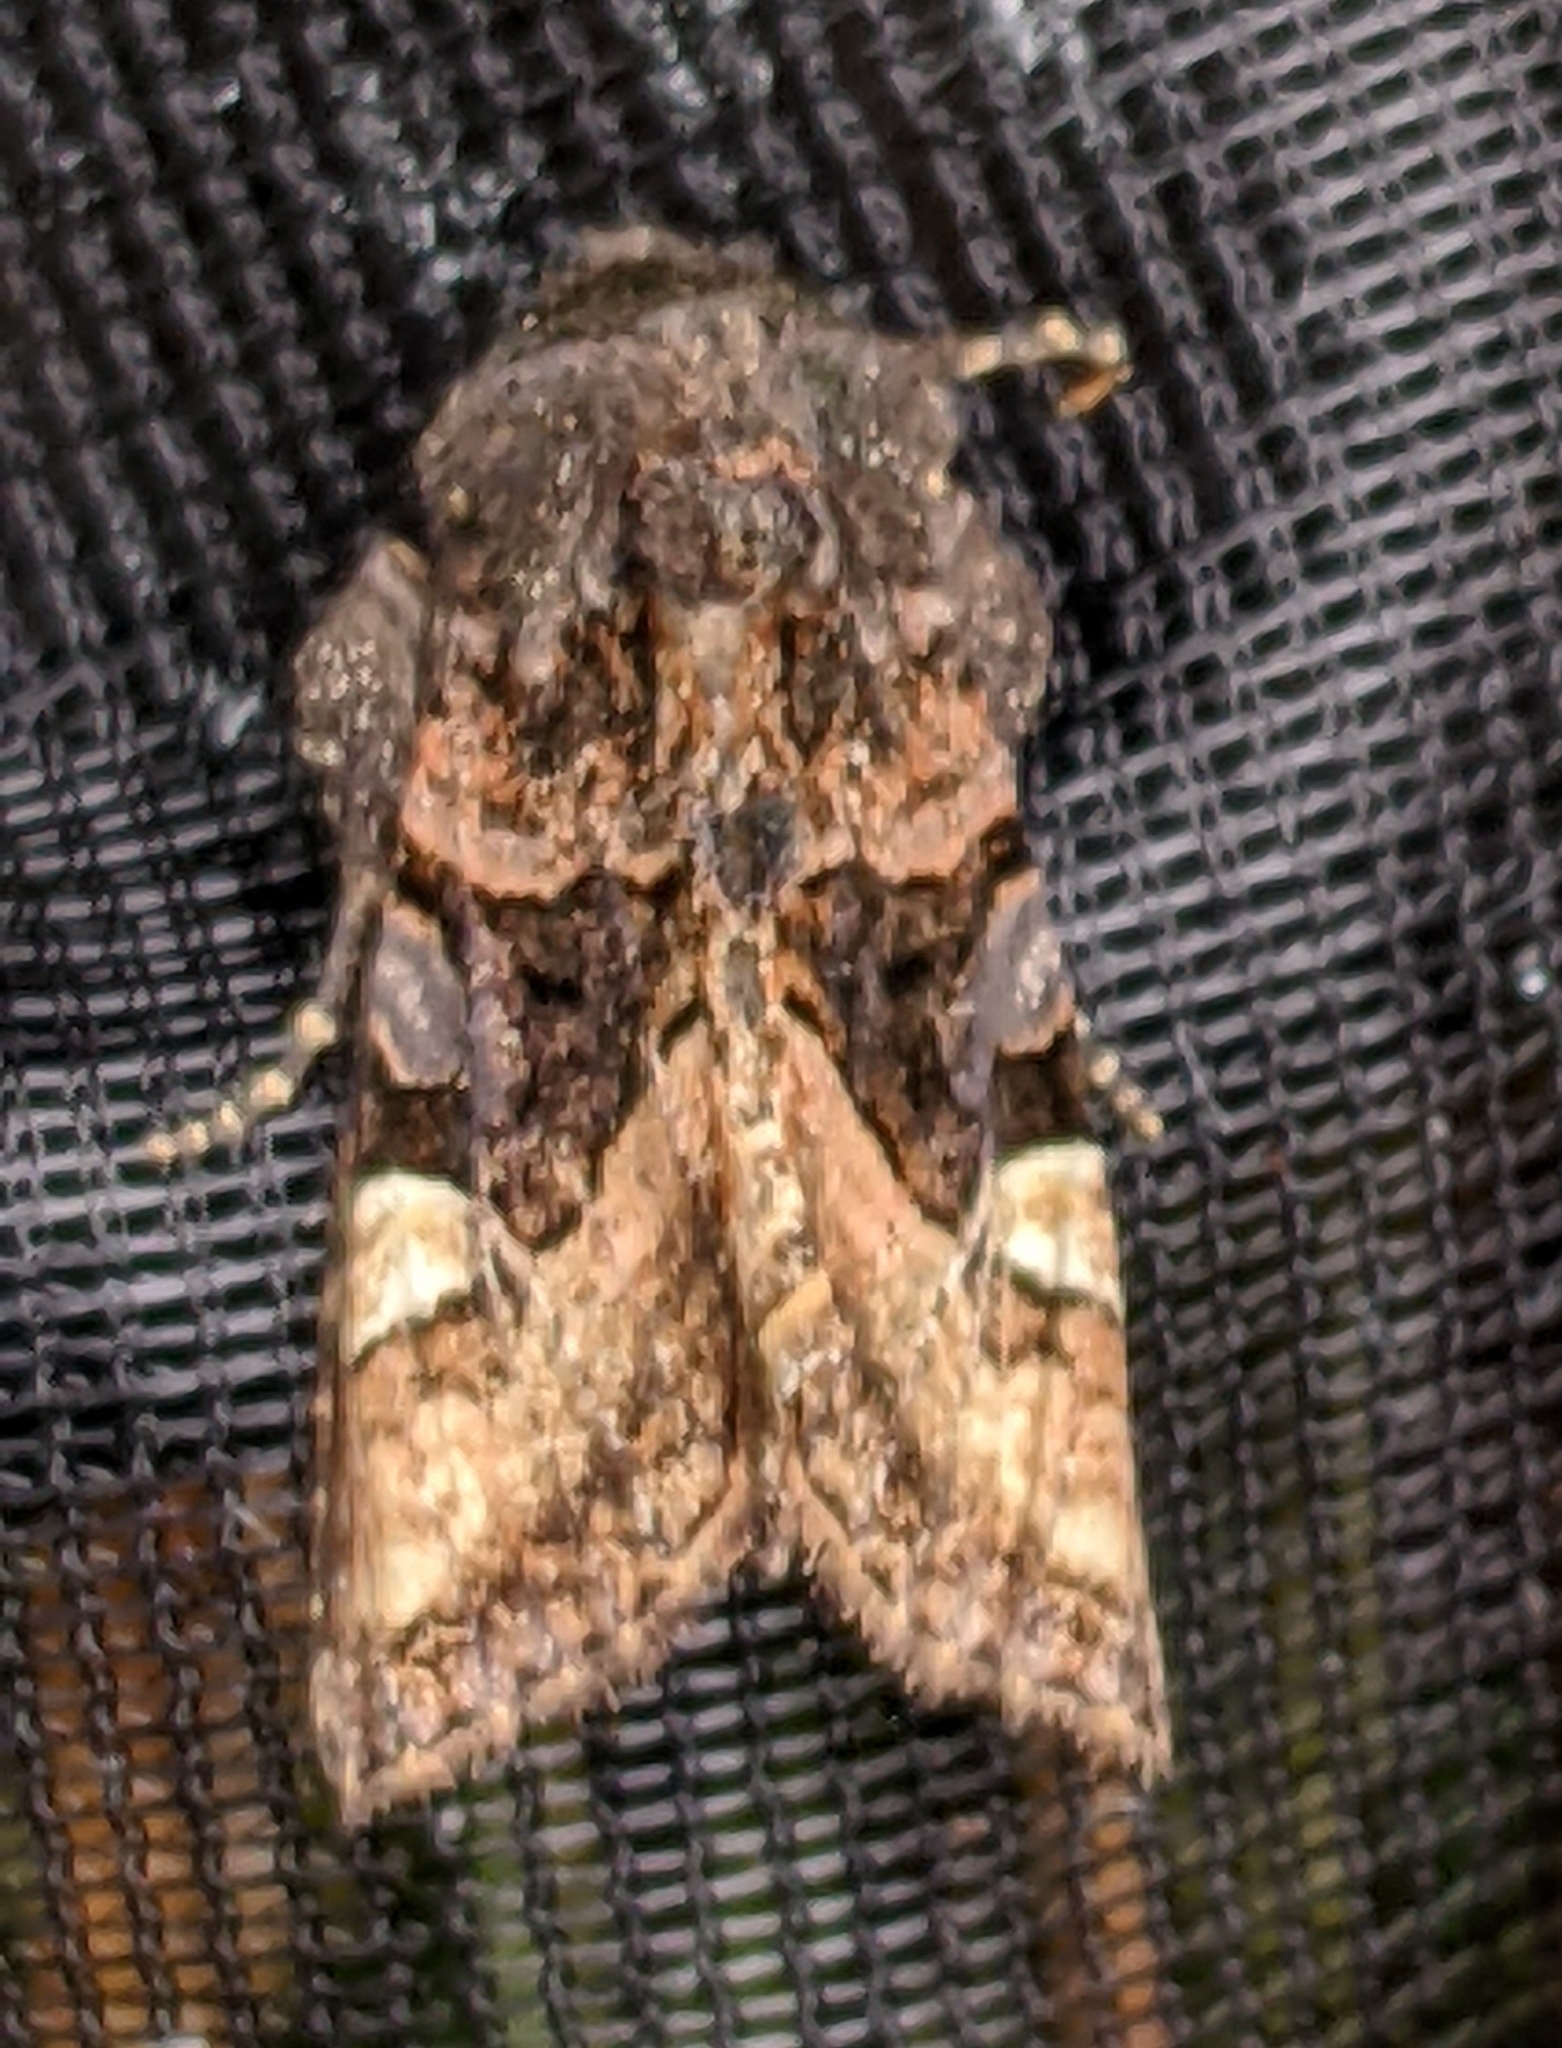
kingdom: Animalia
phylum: Arthropoda
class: Insecta
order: Lepidoptera
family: Noctuidae
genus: Euplexia
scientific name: Euplexia benesimilis
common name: American angle shades
